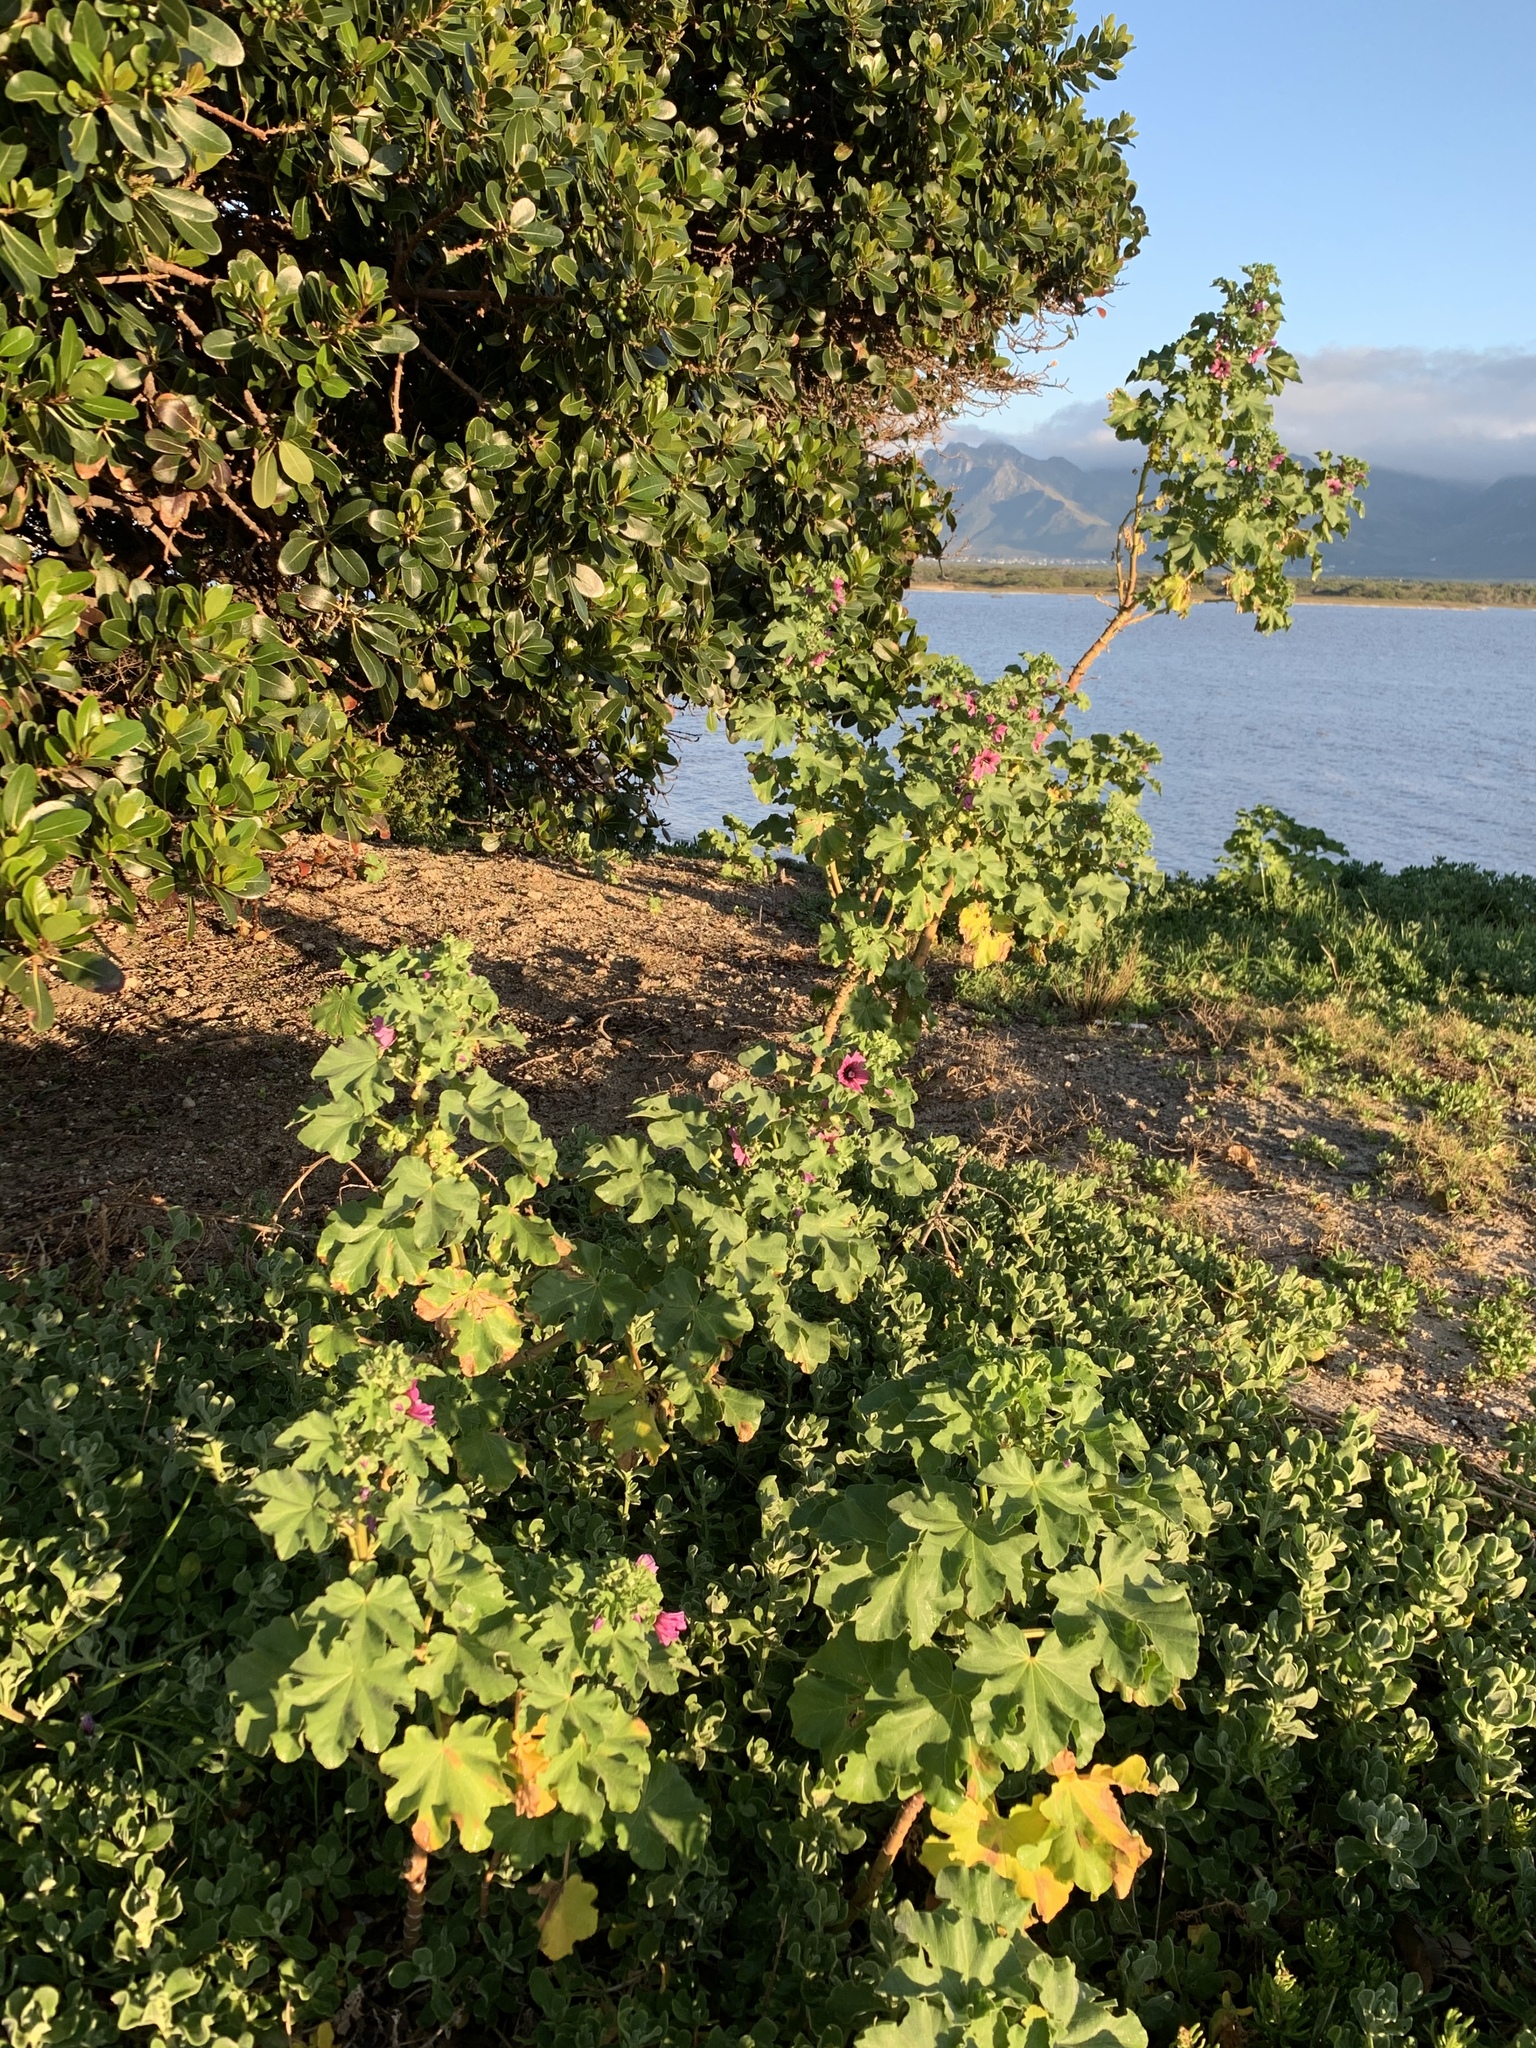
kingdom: Plantae
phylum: Tracheophyta
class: Magnoliopsida
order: Malvales
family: Malvaceae
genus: Malva
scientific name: Malva arborea
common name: Tree mallow
